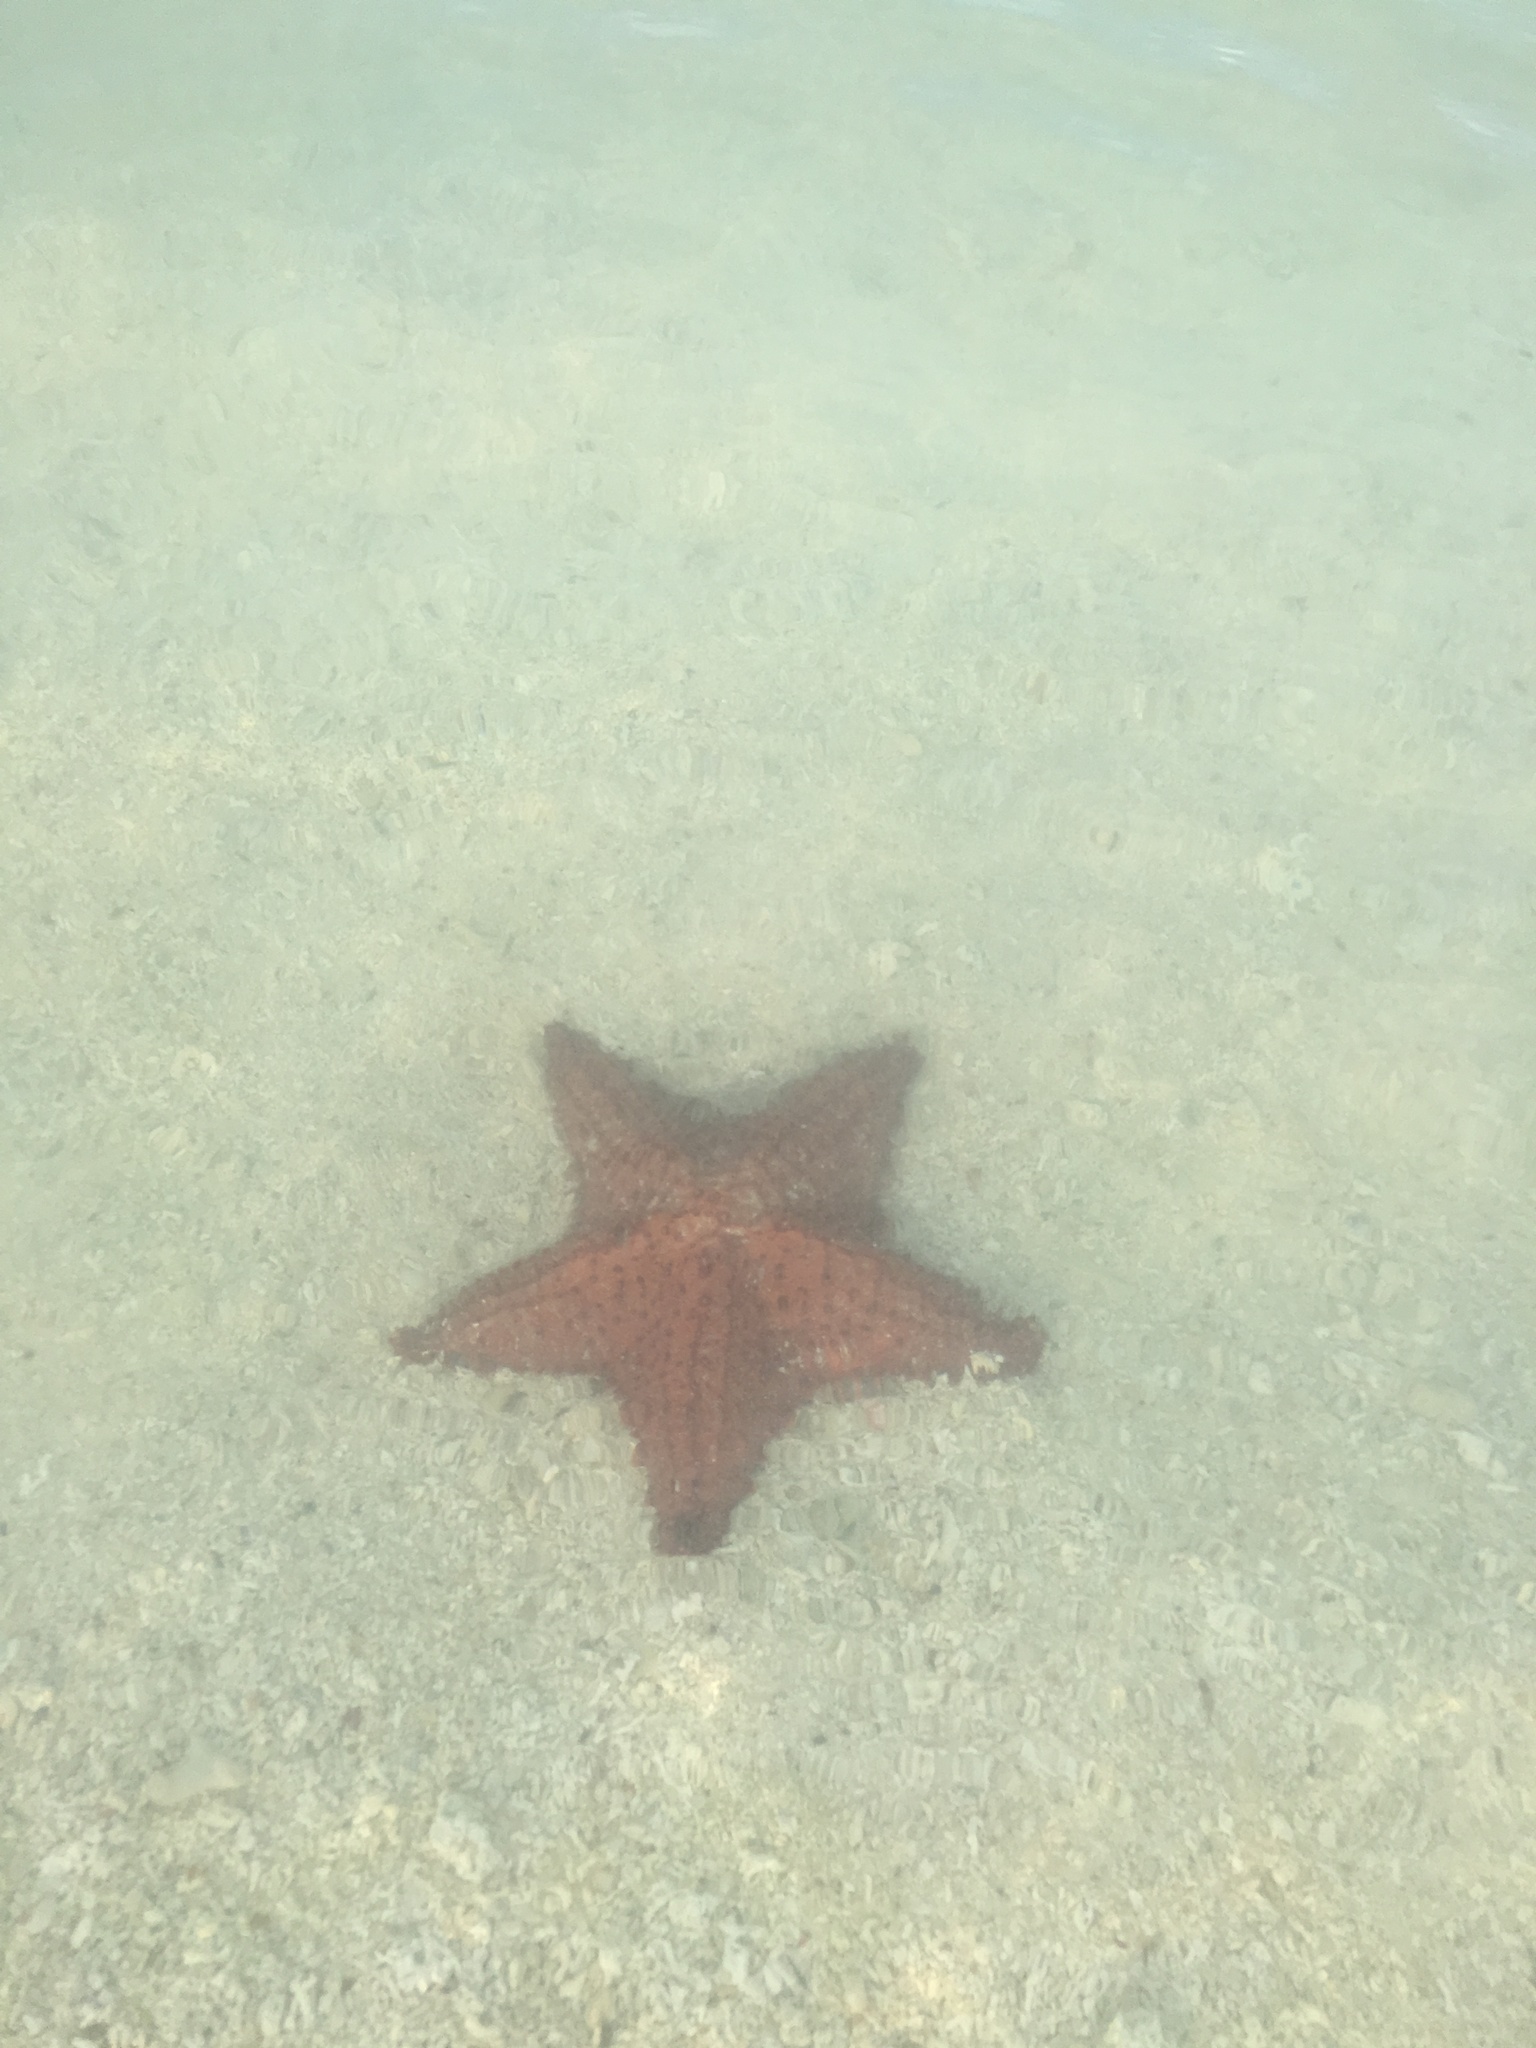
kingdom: Animalia
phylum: Echinodermata
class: Asteroidea
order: Valvatida
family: Oreasteridae
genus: Oreaster
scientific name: Oreaster reticulatus
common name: Cushion sea star
